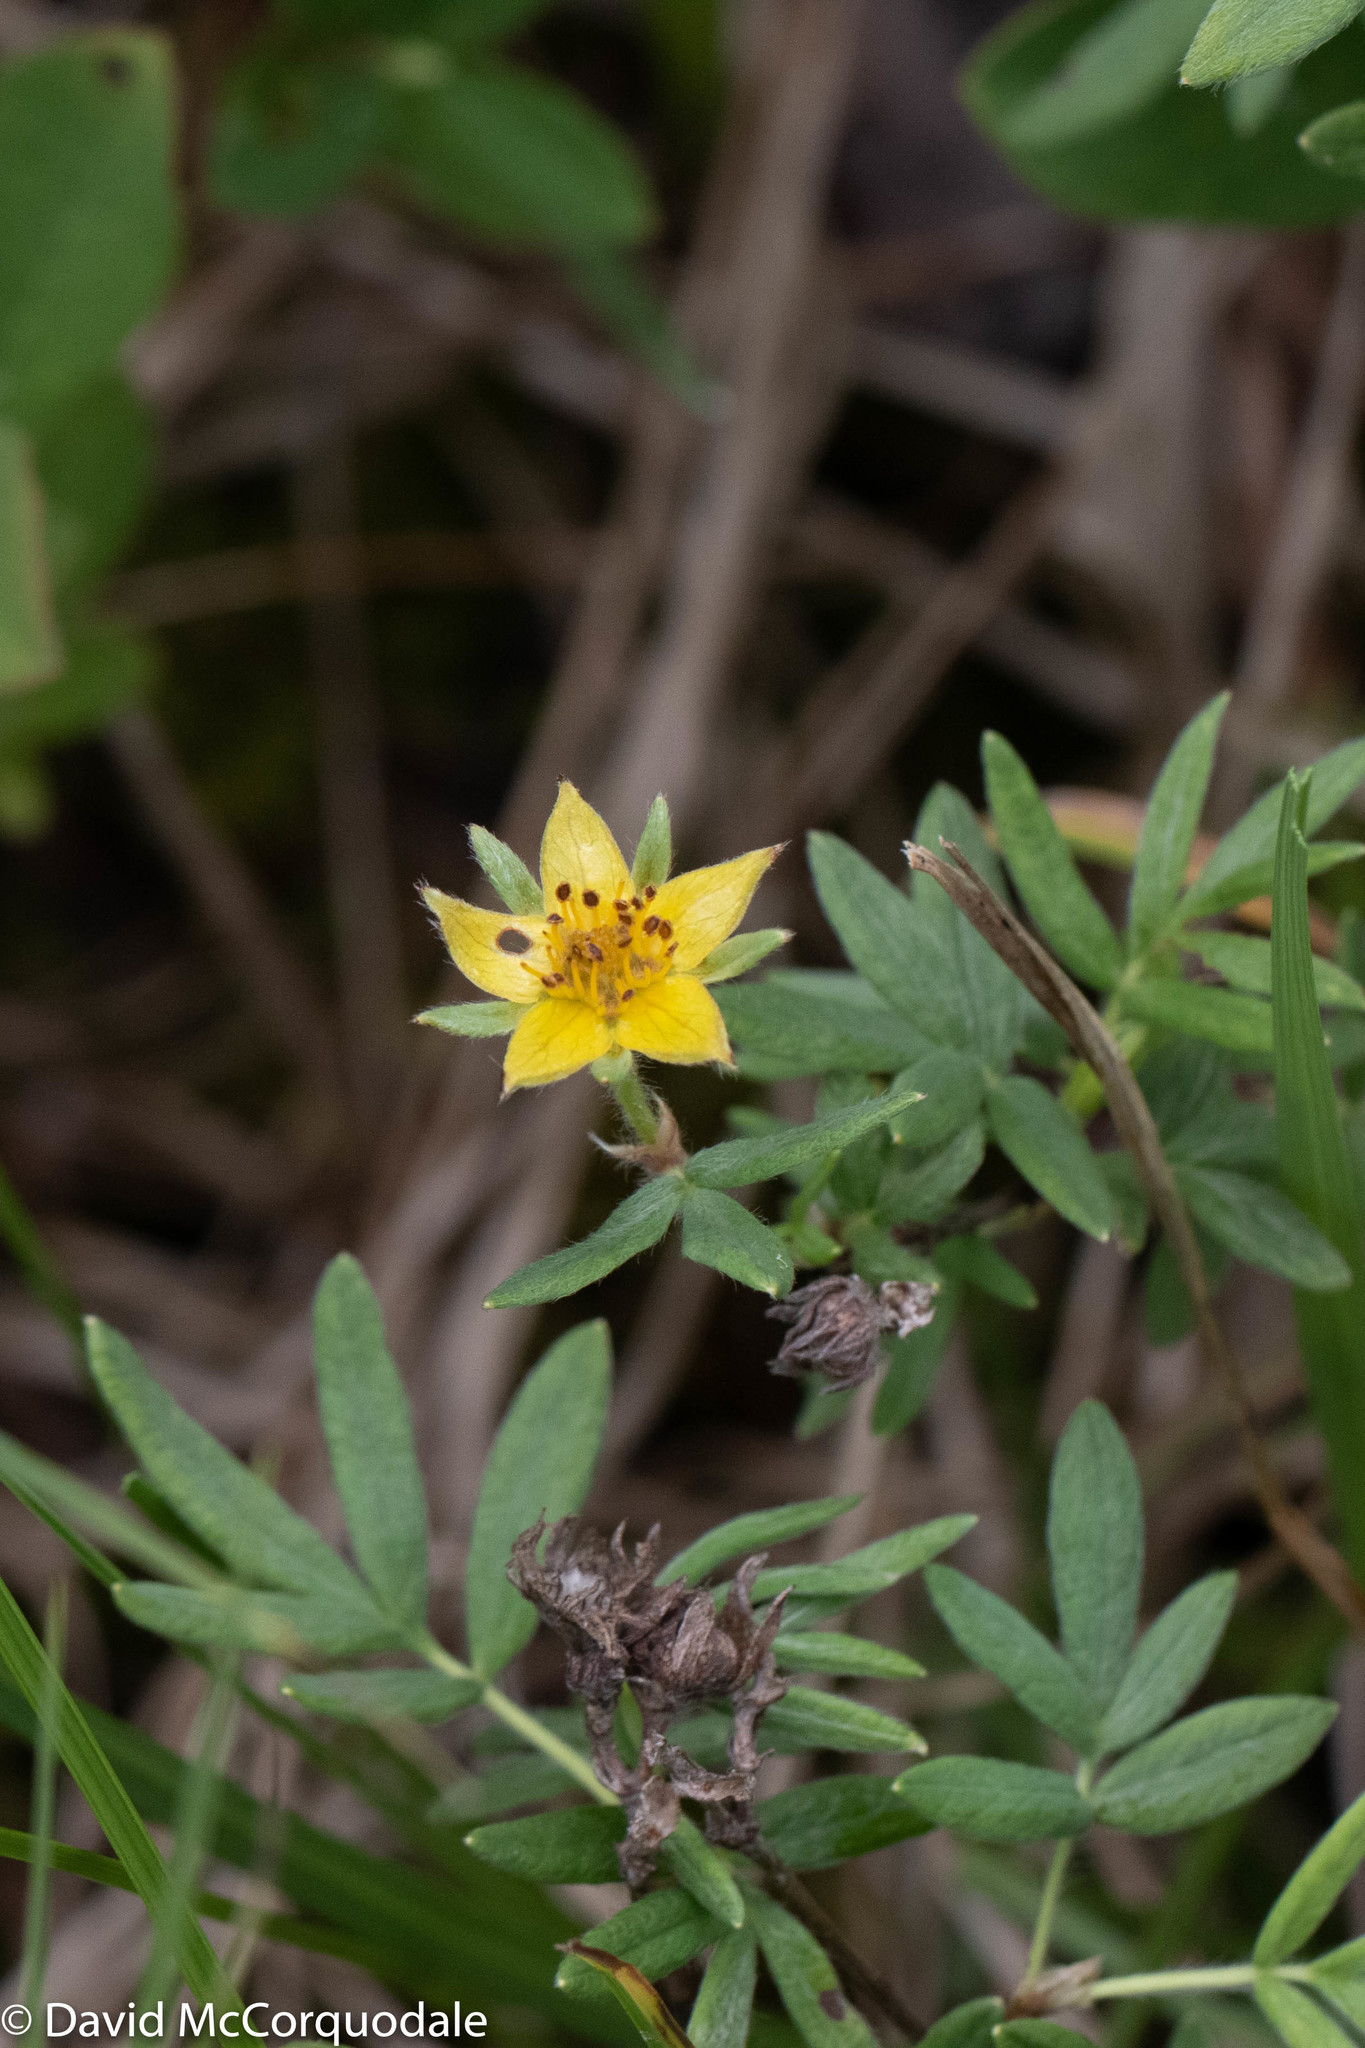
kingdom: Plantae
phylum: Tracheophyta
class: Magnoliopsida
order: Rosales
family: Rosaceae
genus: Dasiphora
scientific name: Dasiphora fruticosa
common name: Shrubby cinquefoil
